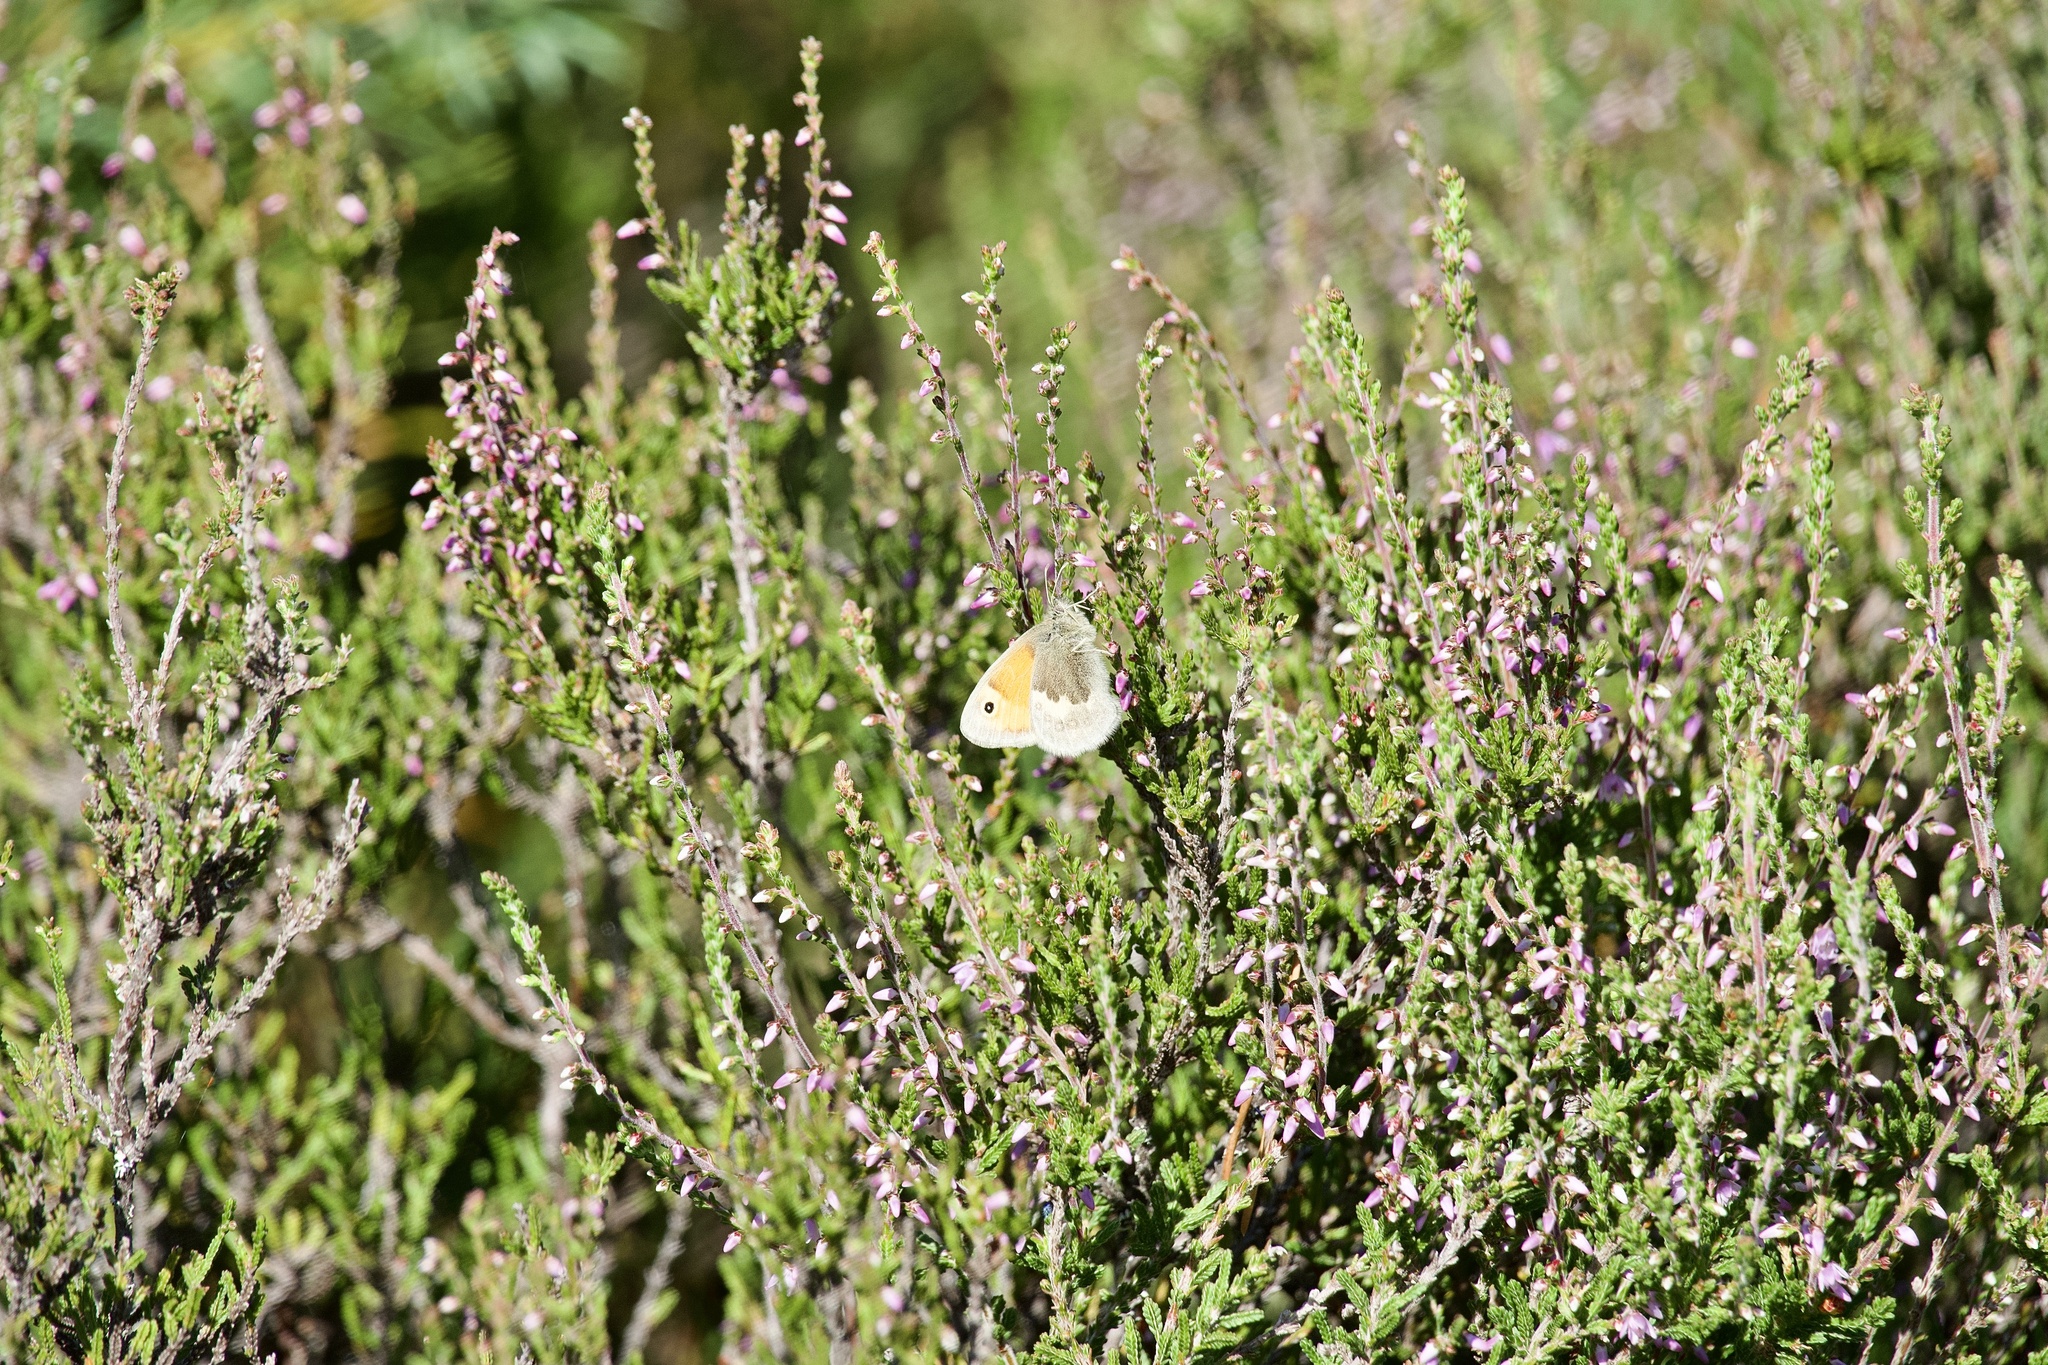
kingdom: Animalia
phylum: Arthropoda
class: Insecta
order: Lepidoptera
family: Nymphalidae
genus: Coenonympha
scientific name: Coenonympha pamphilus
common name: Small heath
